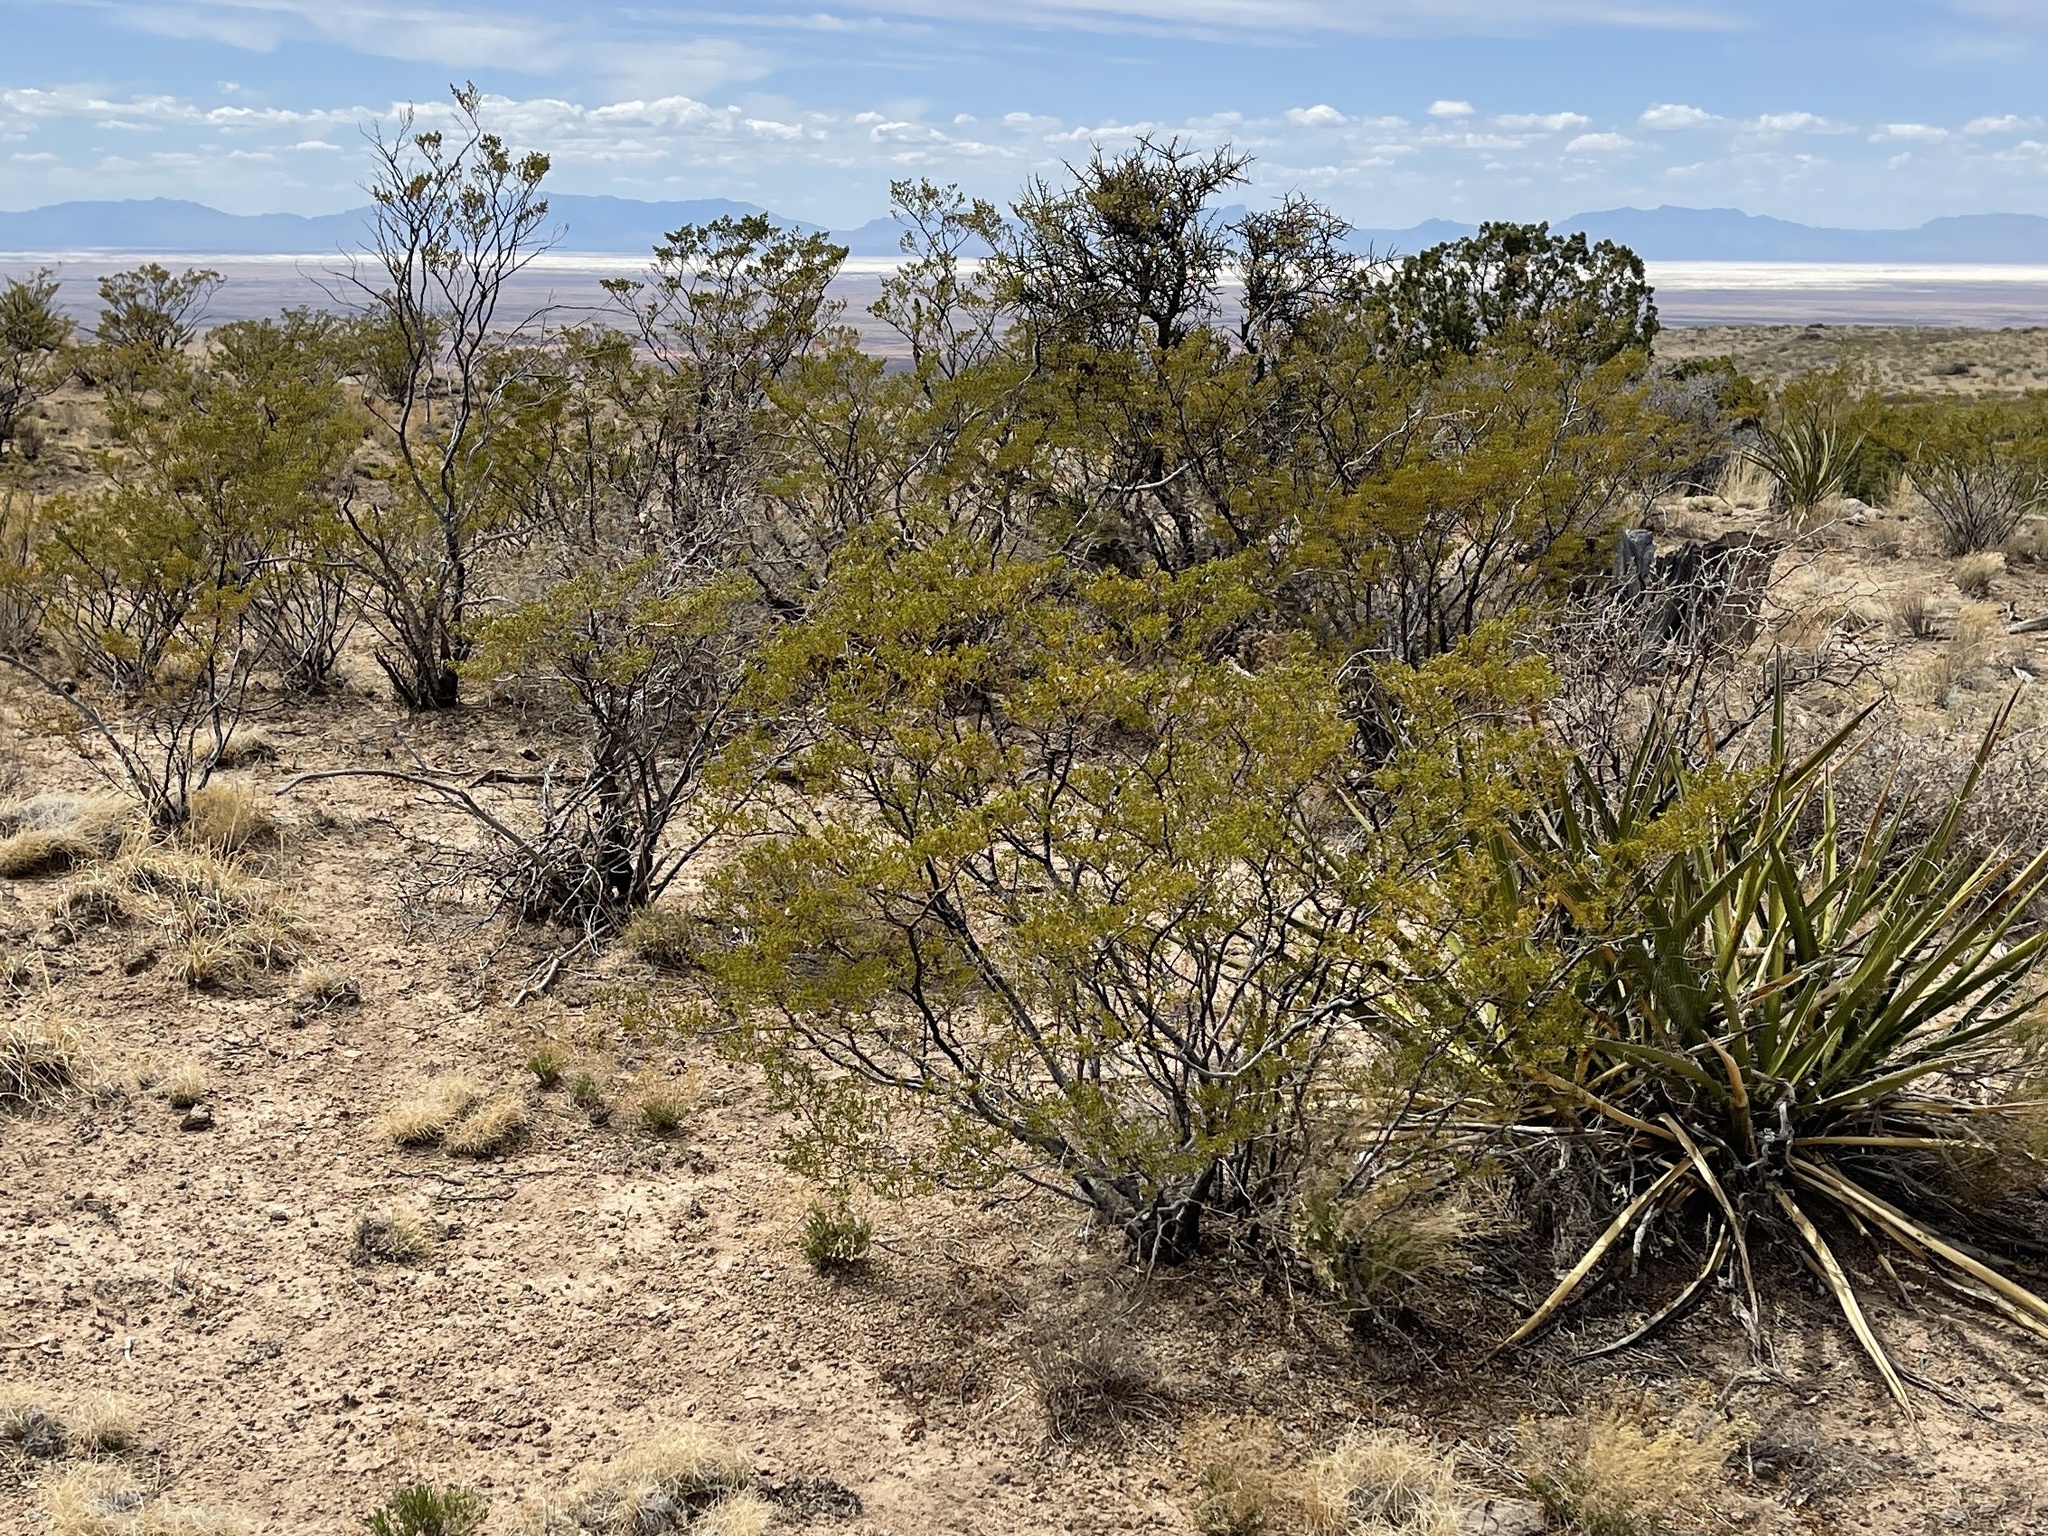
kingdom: Plantae
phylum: Tracheophyta
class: Magnoliopsida
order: Zygophyllales
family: Zygophyllaceae
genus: Larrea
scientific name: Larrea tridentata
